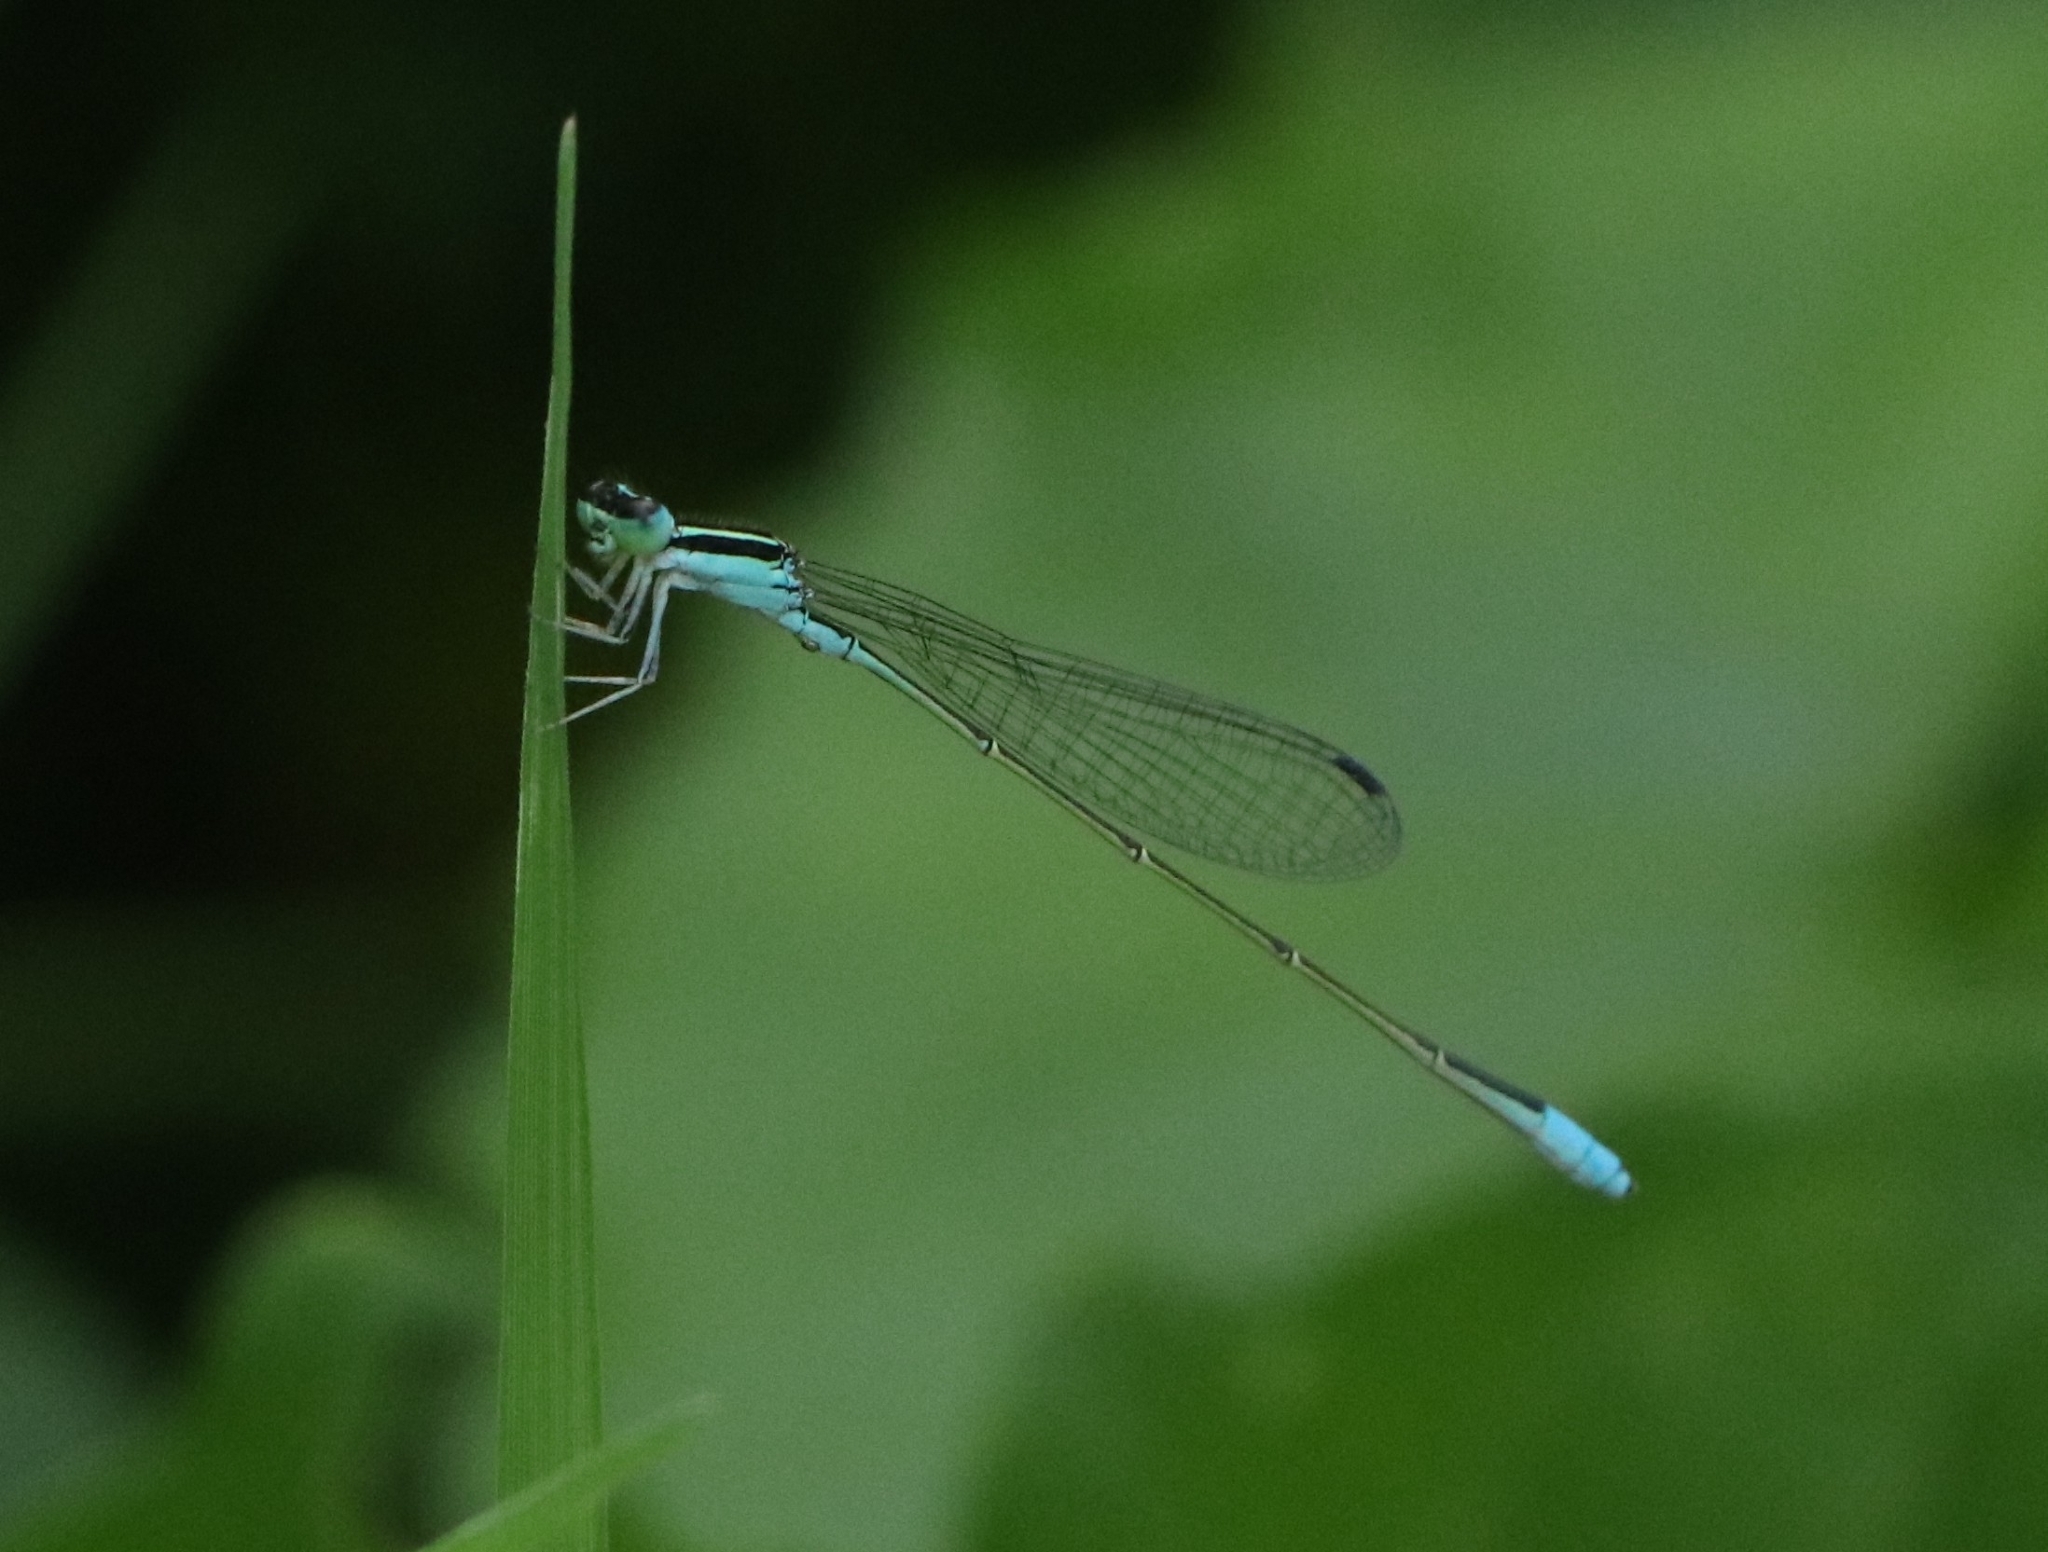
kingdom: Animalia
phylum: Arthropoda
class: Insecta
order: Odonata
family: Coenagrionidae
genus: Aciagrion
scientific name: Aciagrion occidentale
